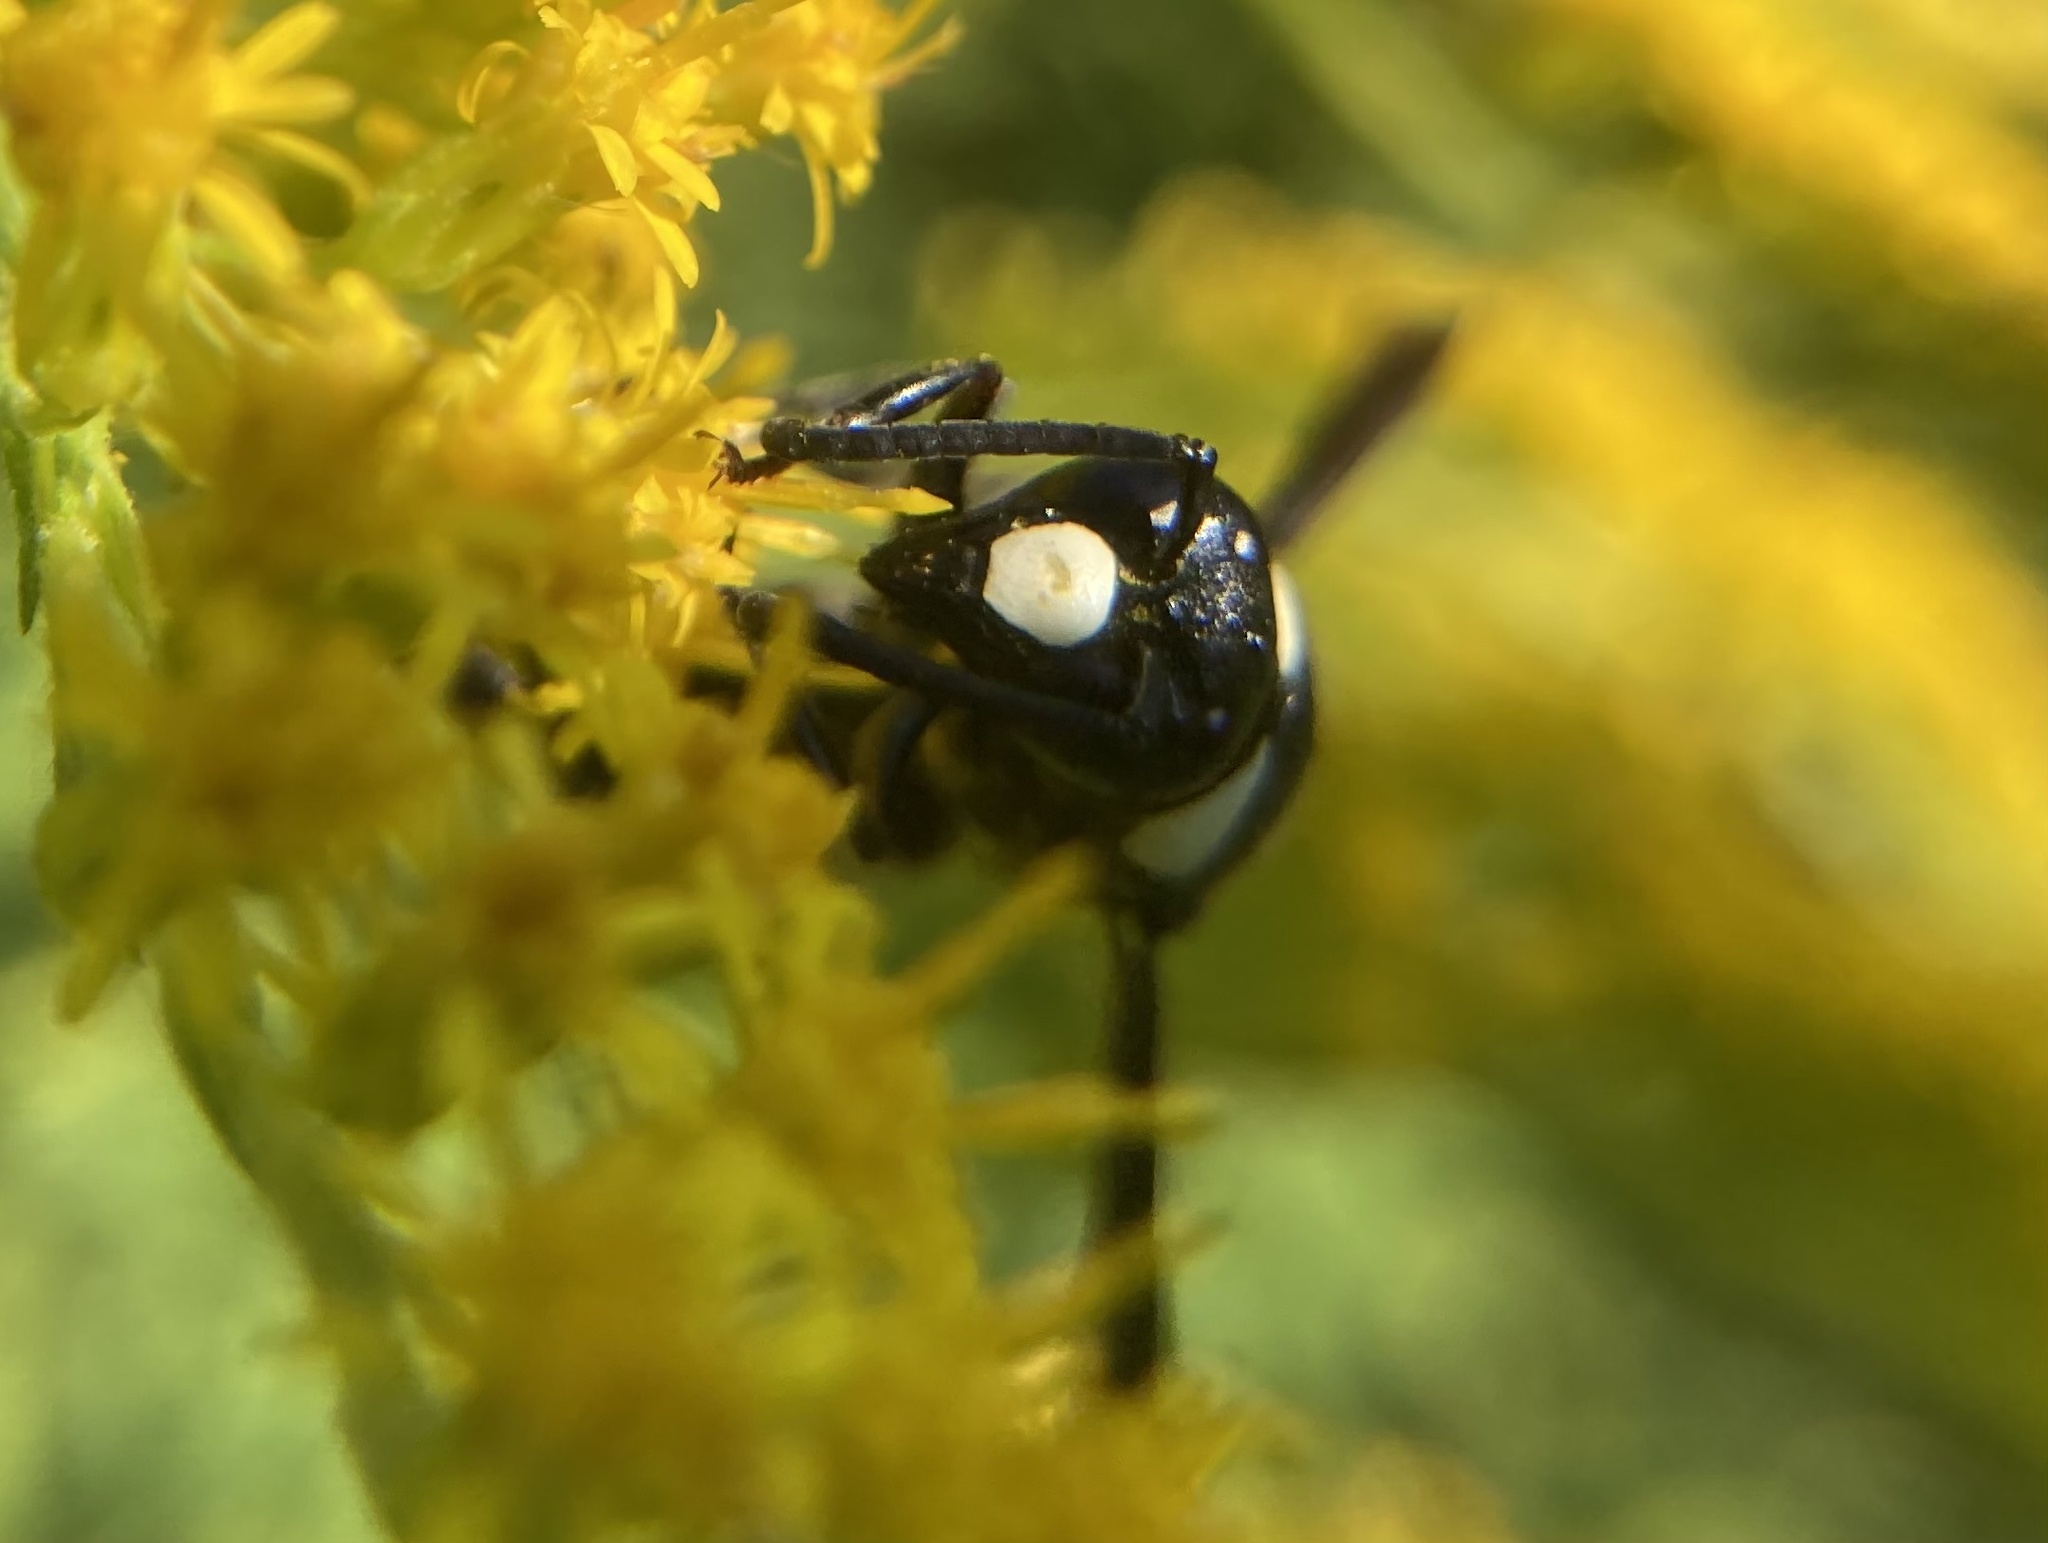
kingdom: Animalia
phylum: Arthropoda
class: Insecta
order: Hymenoptera
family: Eumenidae
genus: Monobia
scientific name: Monobia quadridens
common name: Four-toothed mason wasp
